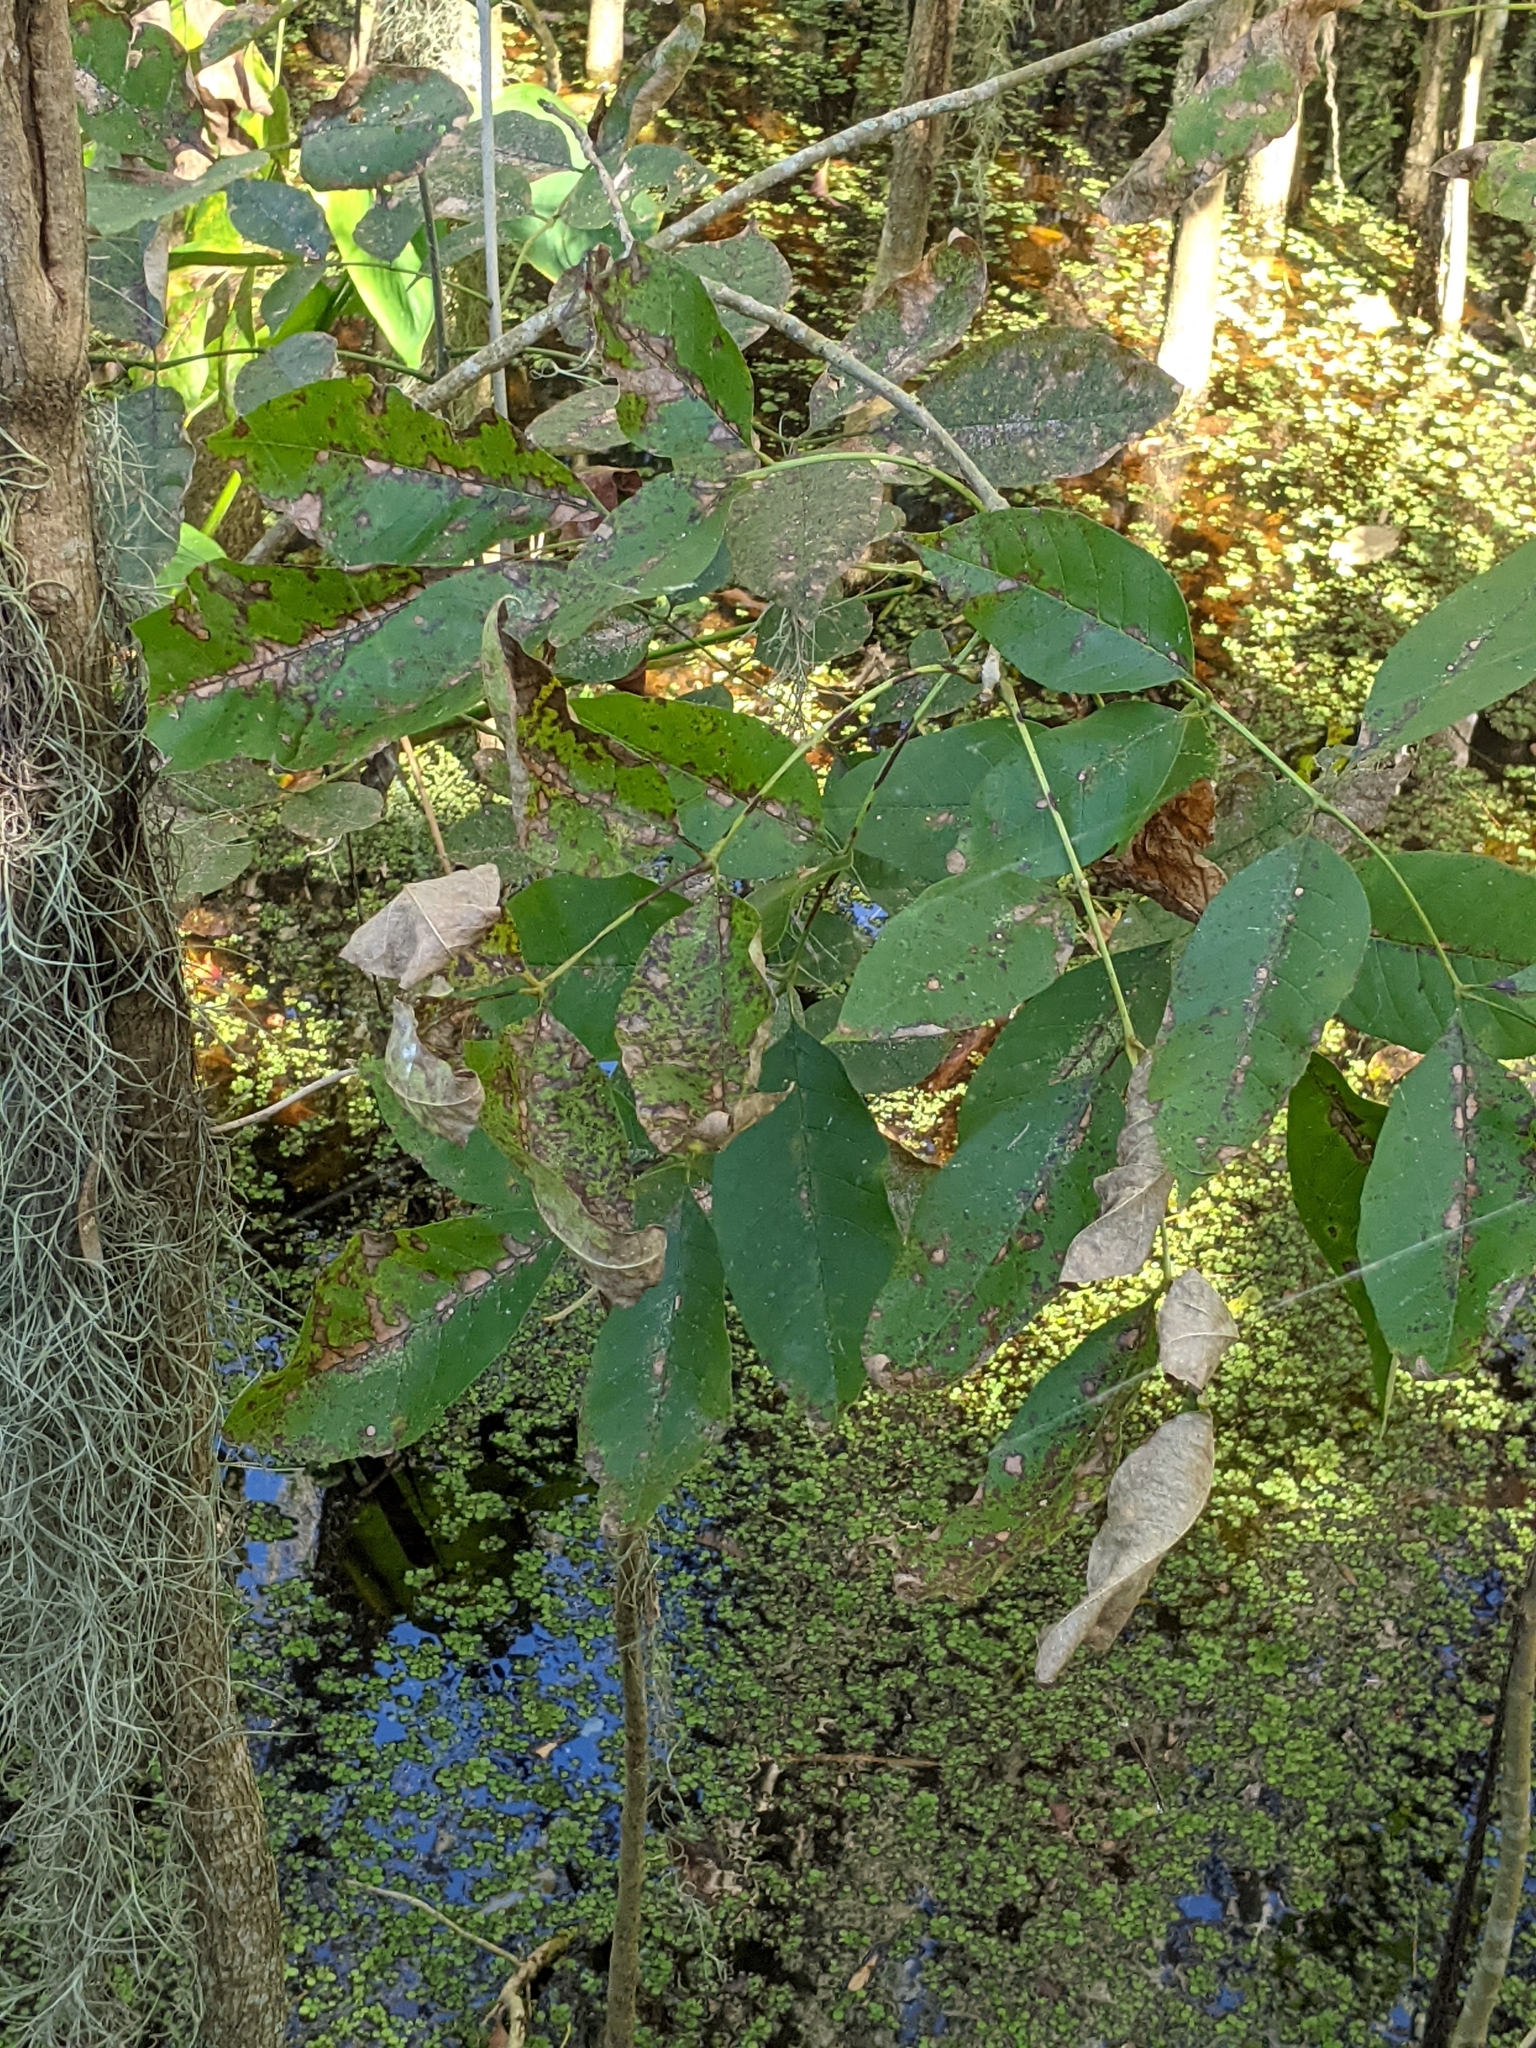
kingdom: Plantae
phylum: Tracheophyta
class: Magnoliopsida
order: Lamiales
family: Oleaceae
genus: Fraxinus
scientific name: Fraxinus caroliniana
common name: Carolina ash
